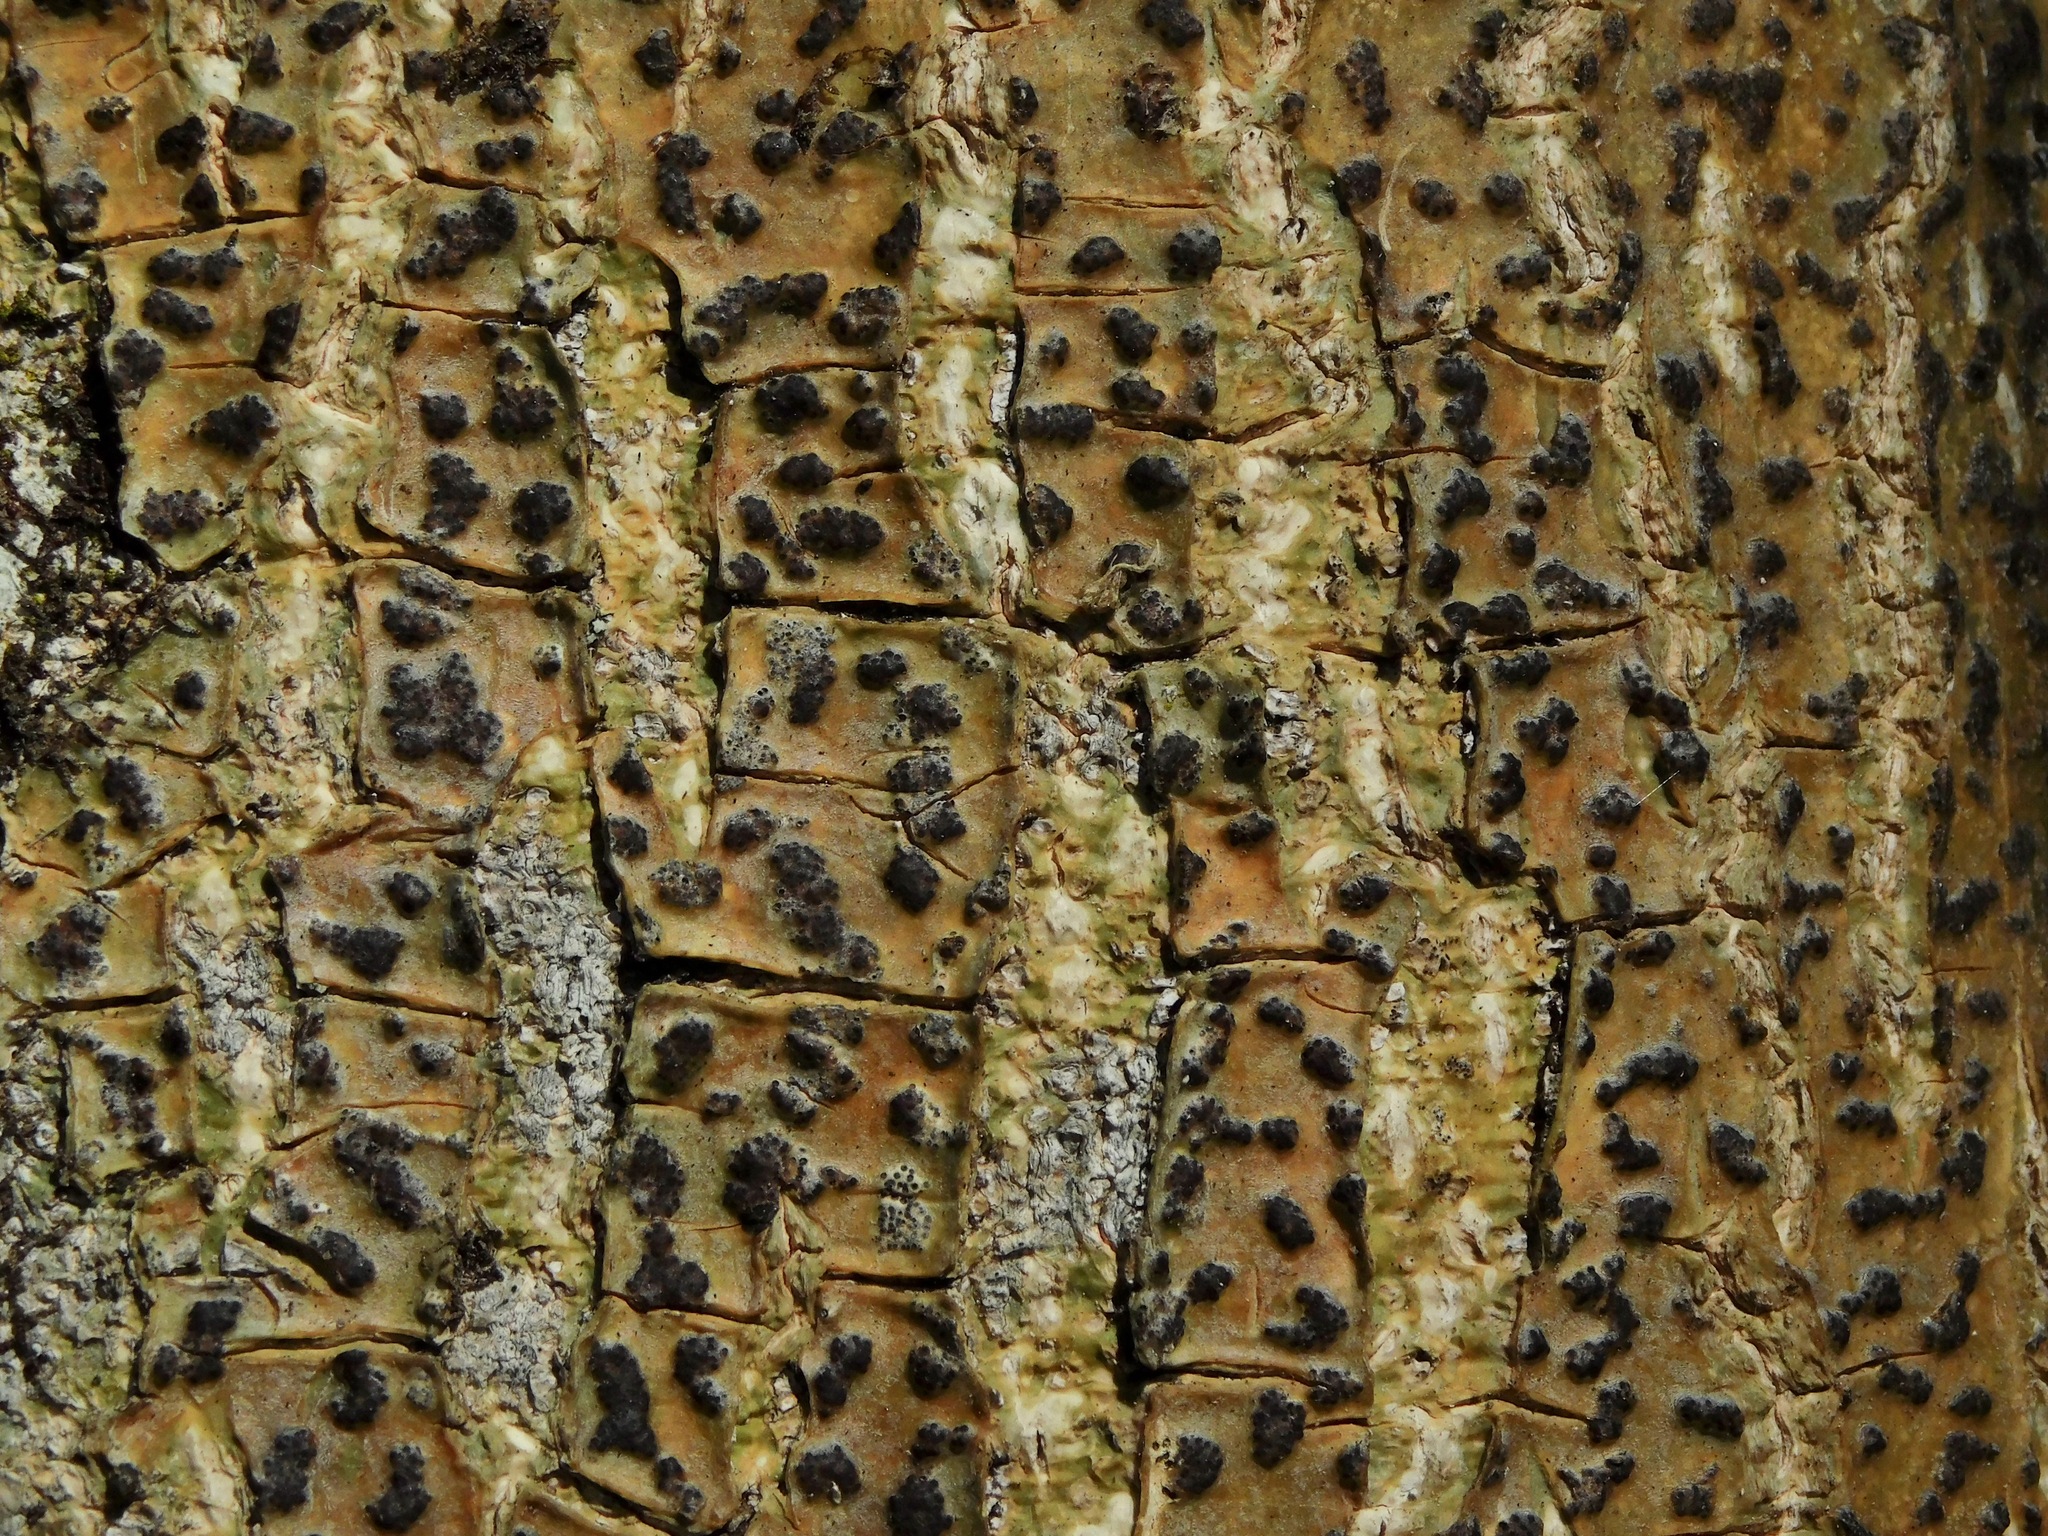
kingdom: Fungi
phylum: Ascomycota
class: Dothideomycetes
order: Trypetheliales
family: Trypetheliaceae
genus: Bathelium
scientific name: Bathelium carolinianum
